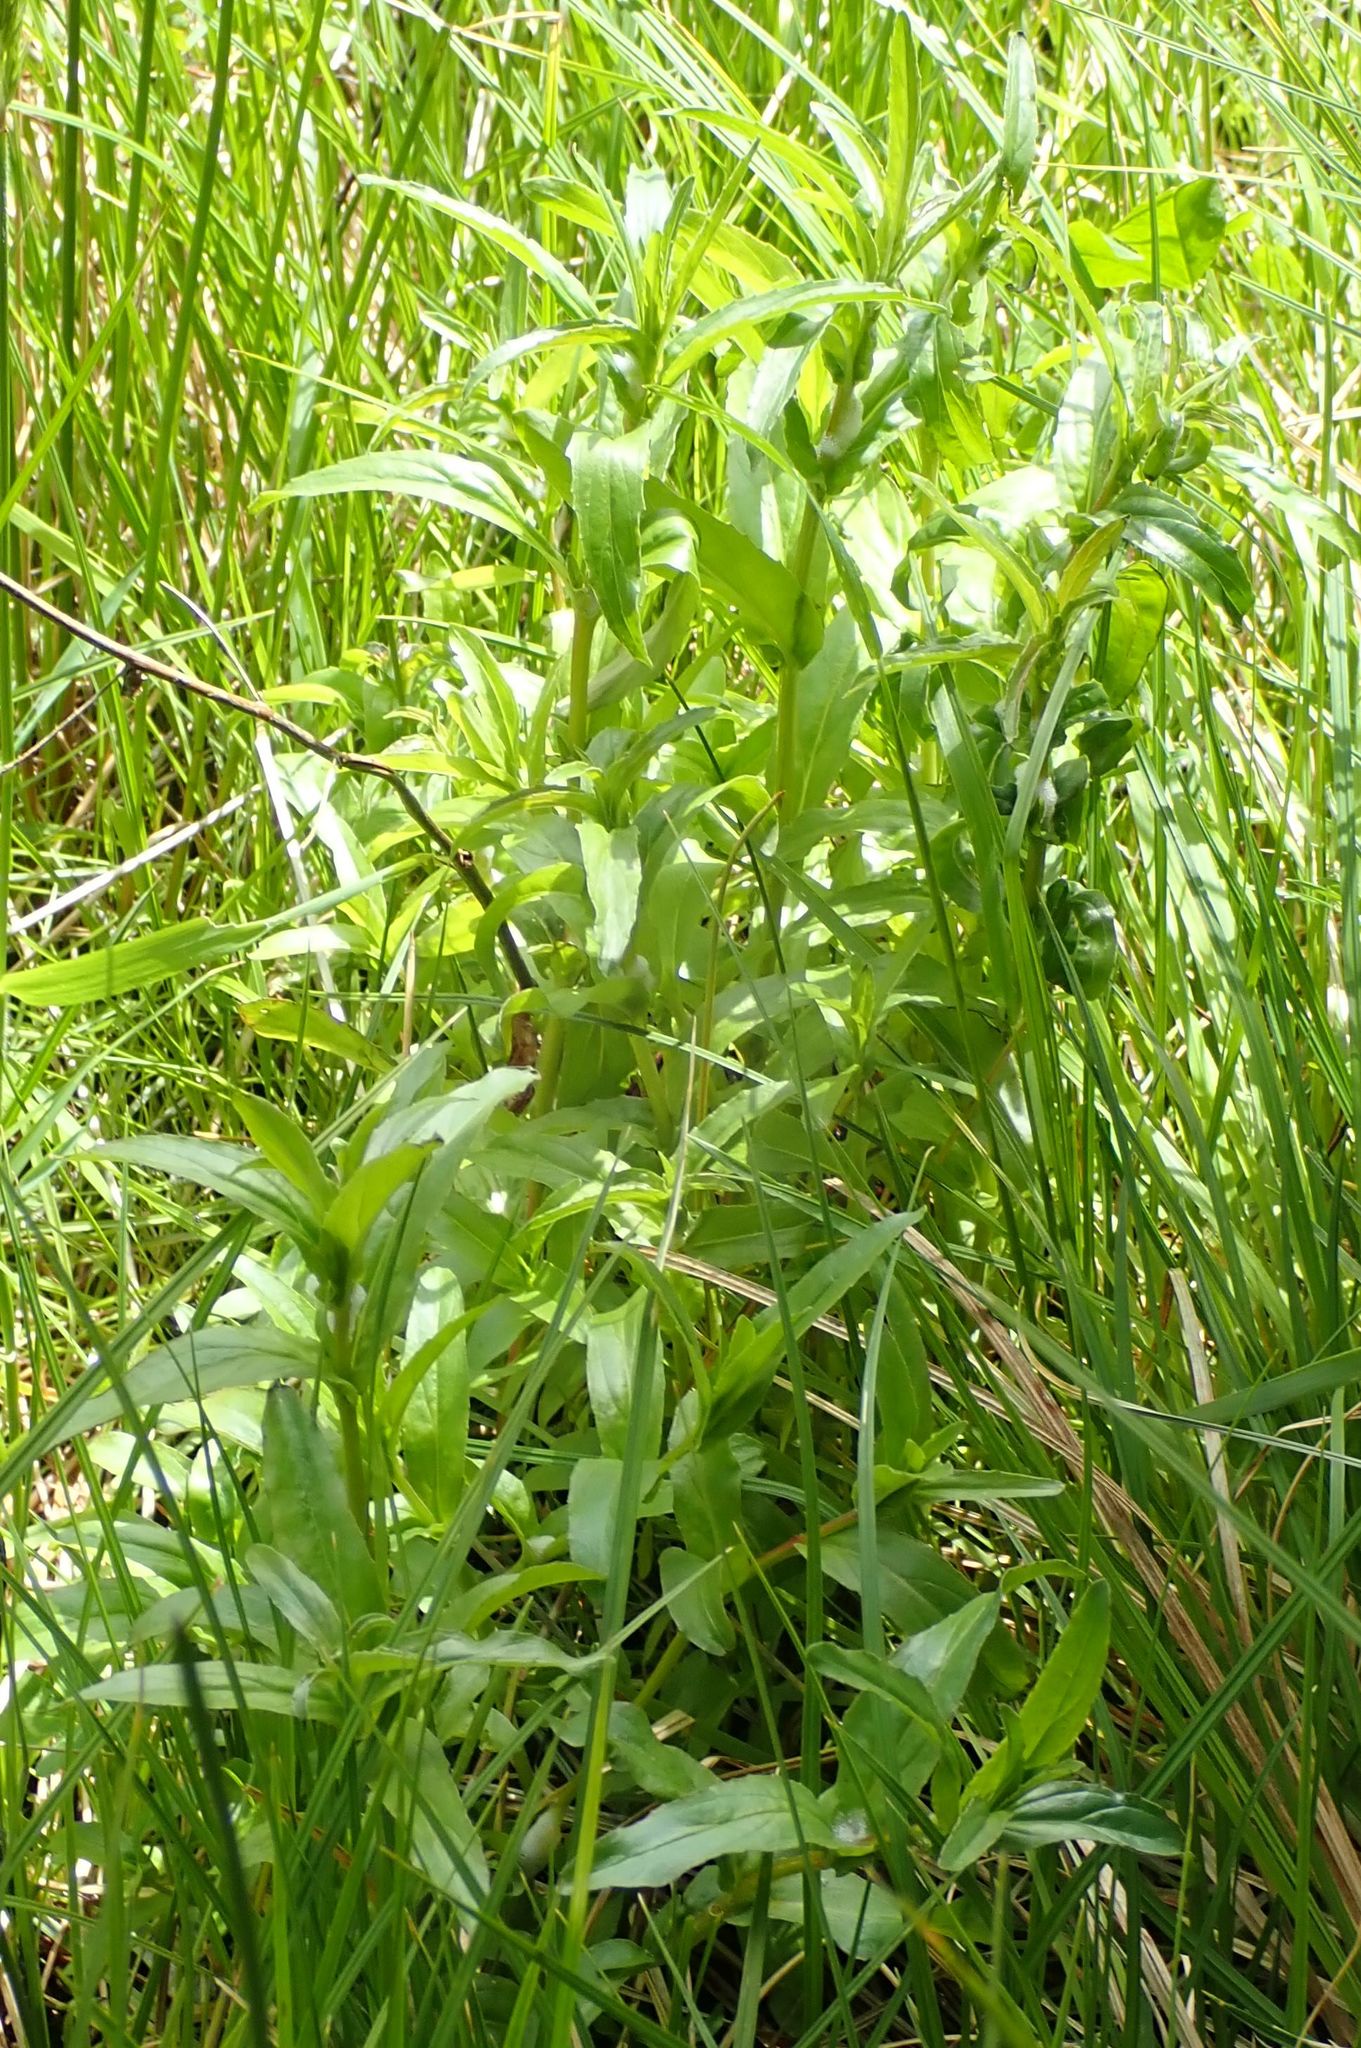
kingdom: Plantae
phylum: Tracheophyta
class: Magnoliopsida
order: Myrtales
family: Onagraceae
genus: Epilobium
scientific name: Epilobium ciliatum
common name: American willowherb
